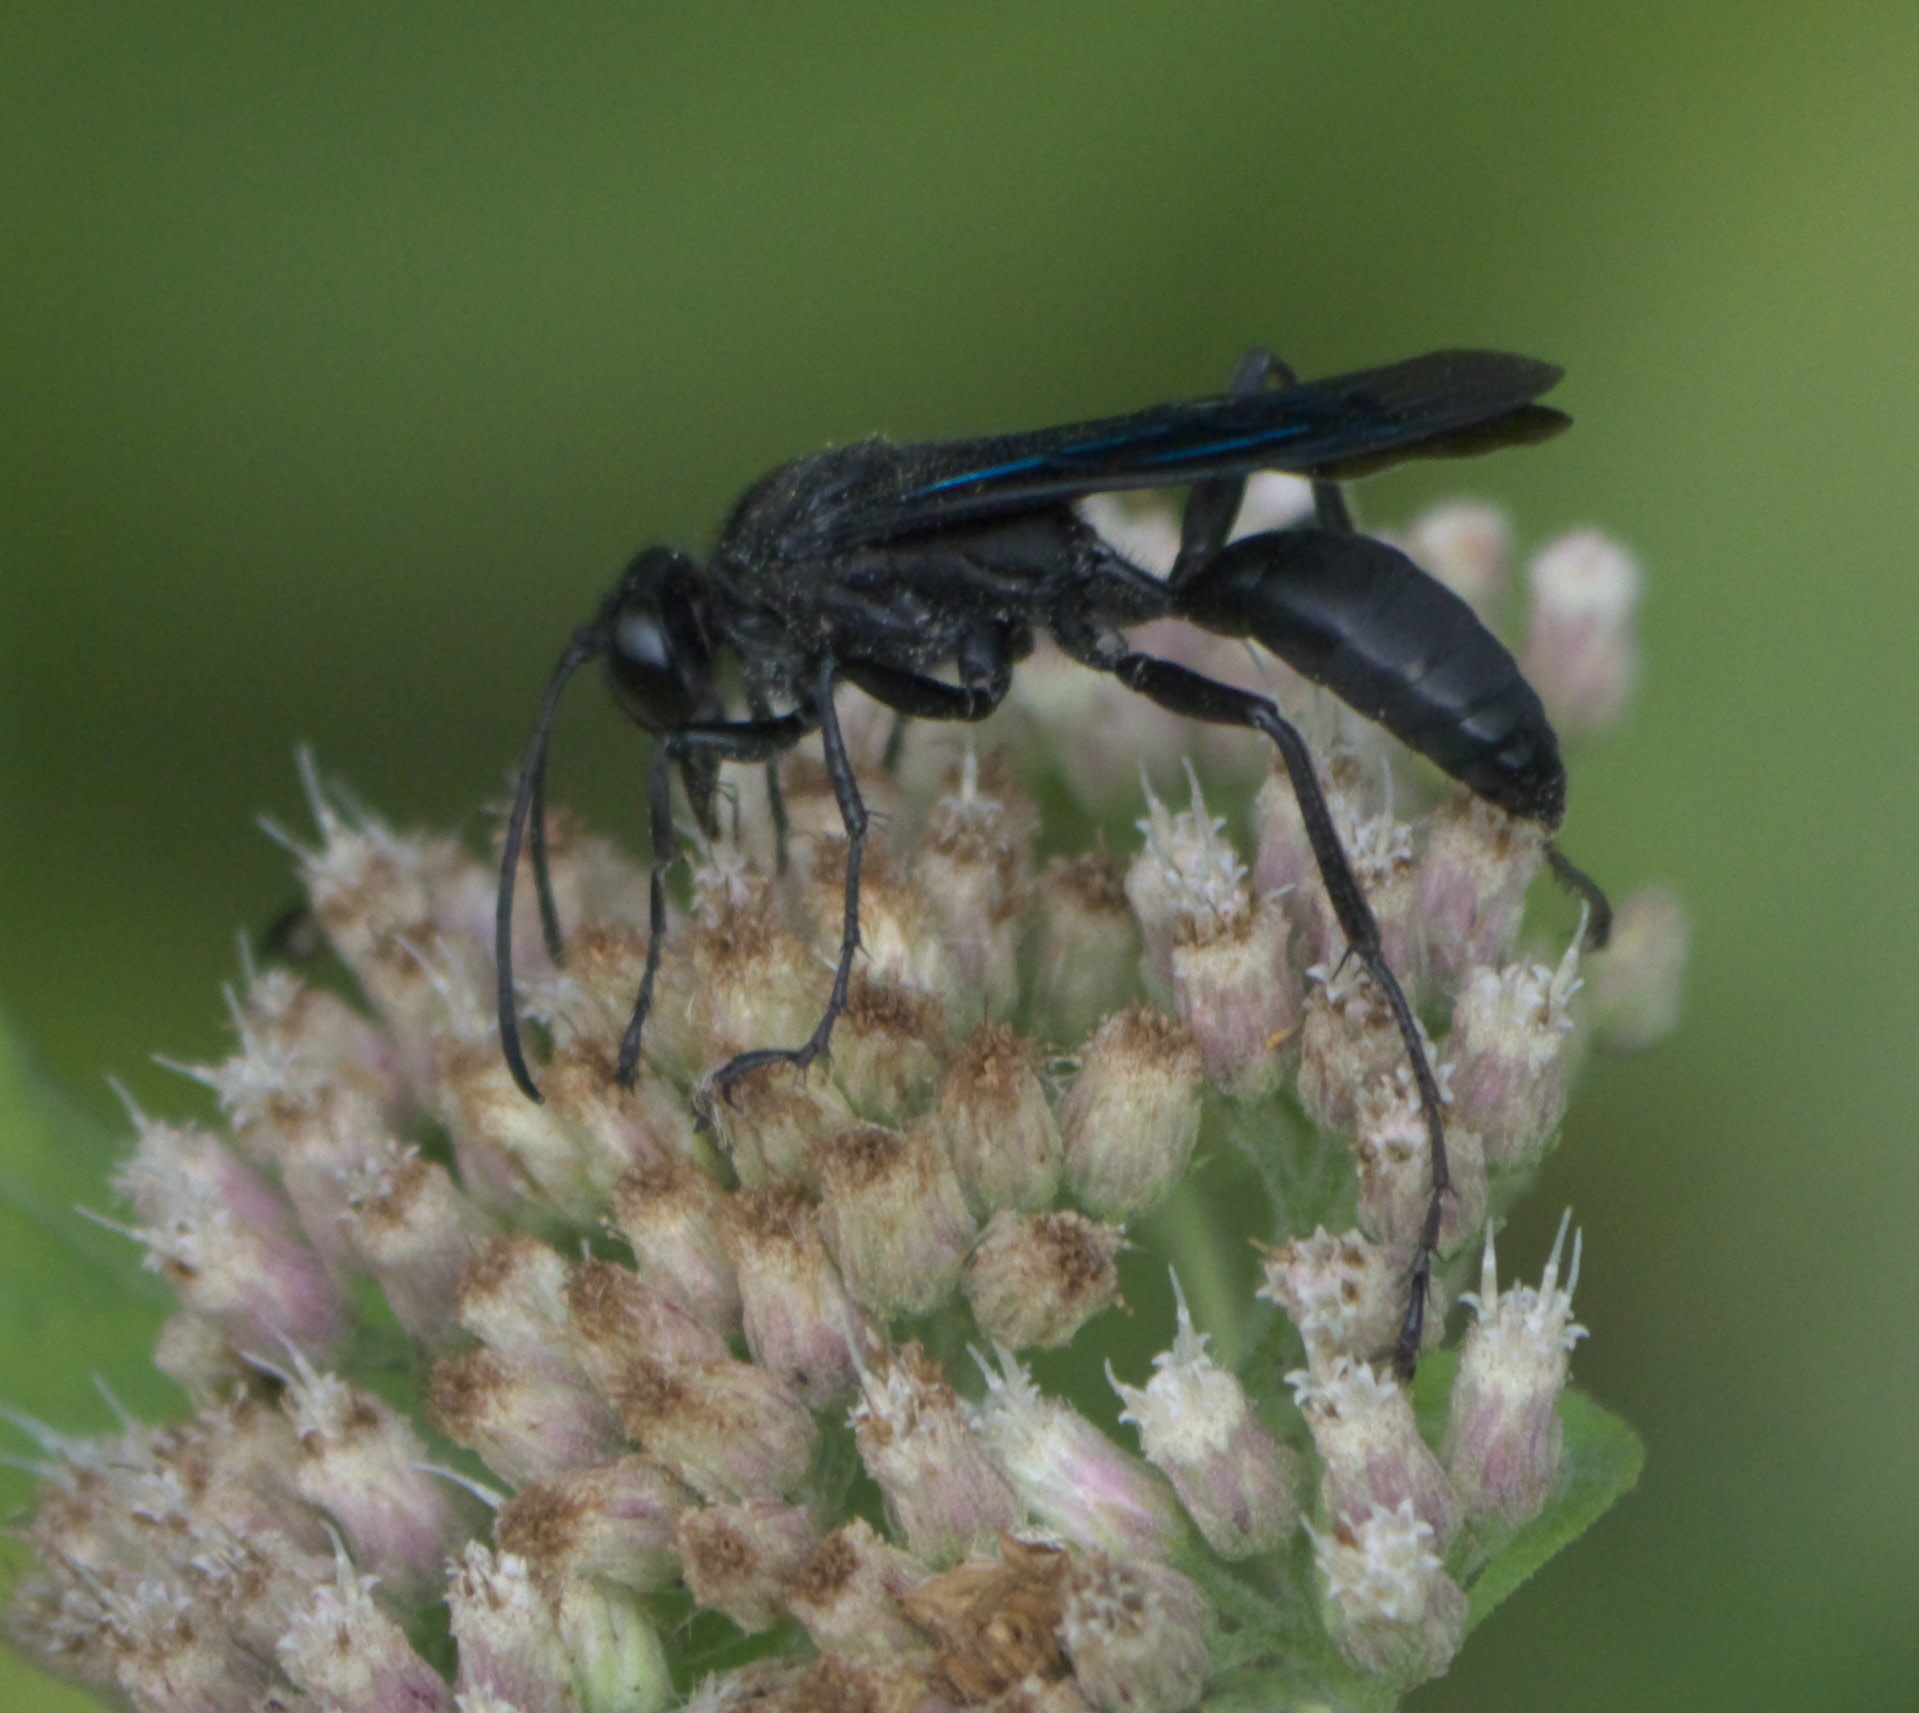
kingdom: Animalia
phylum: Arthropoda
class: Insecta
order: Hymenoptera
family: Sphecidae
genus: Sphex
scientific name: Sphex pensylvanicus
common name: Great black digger wasp
